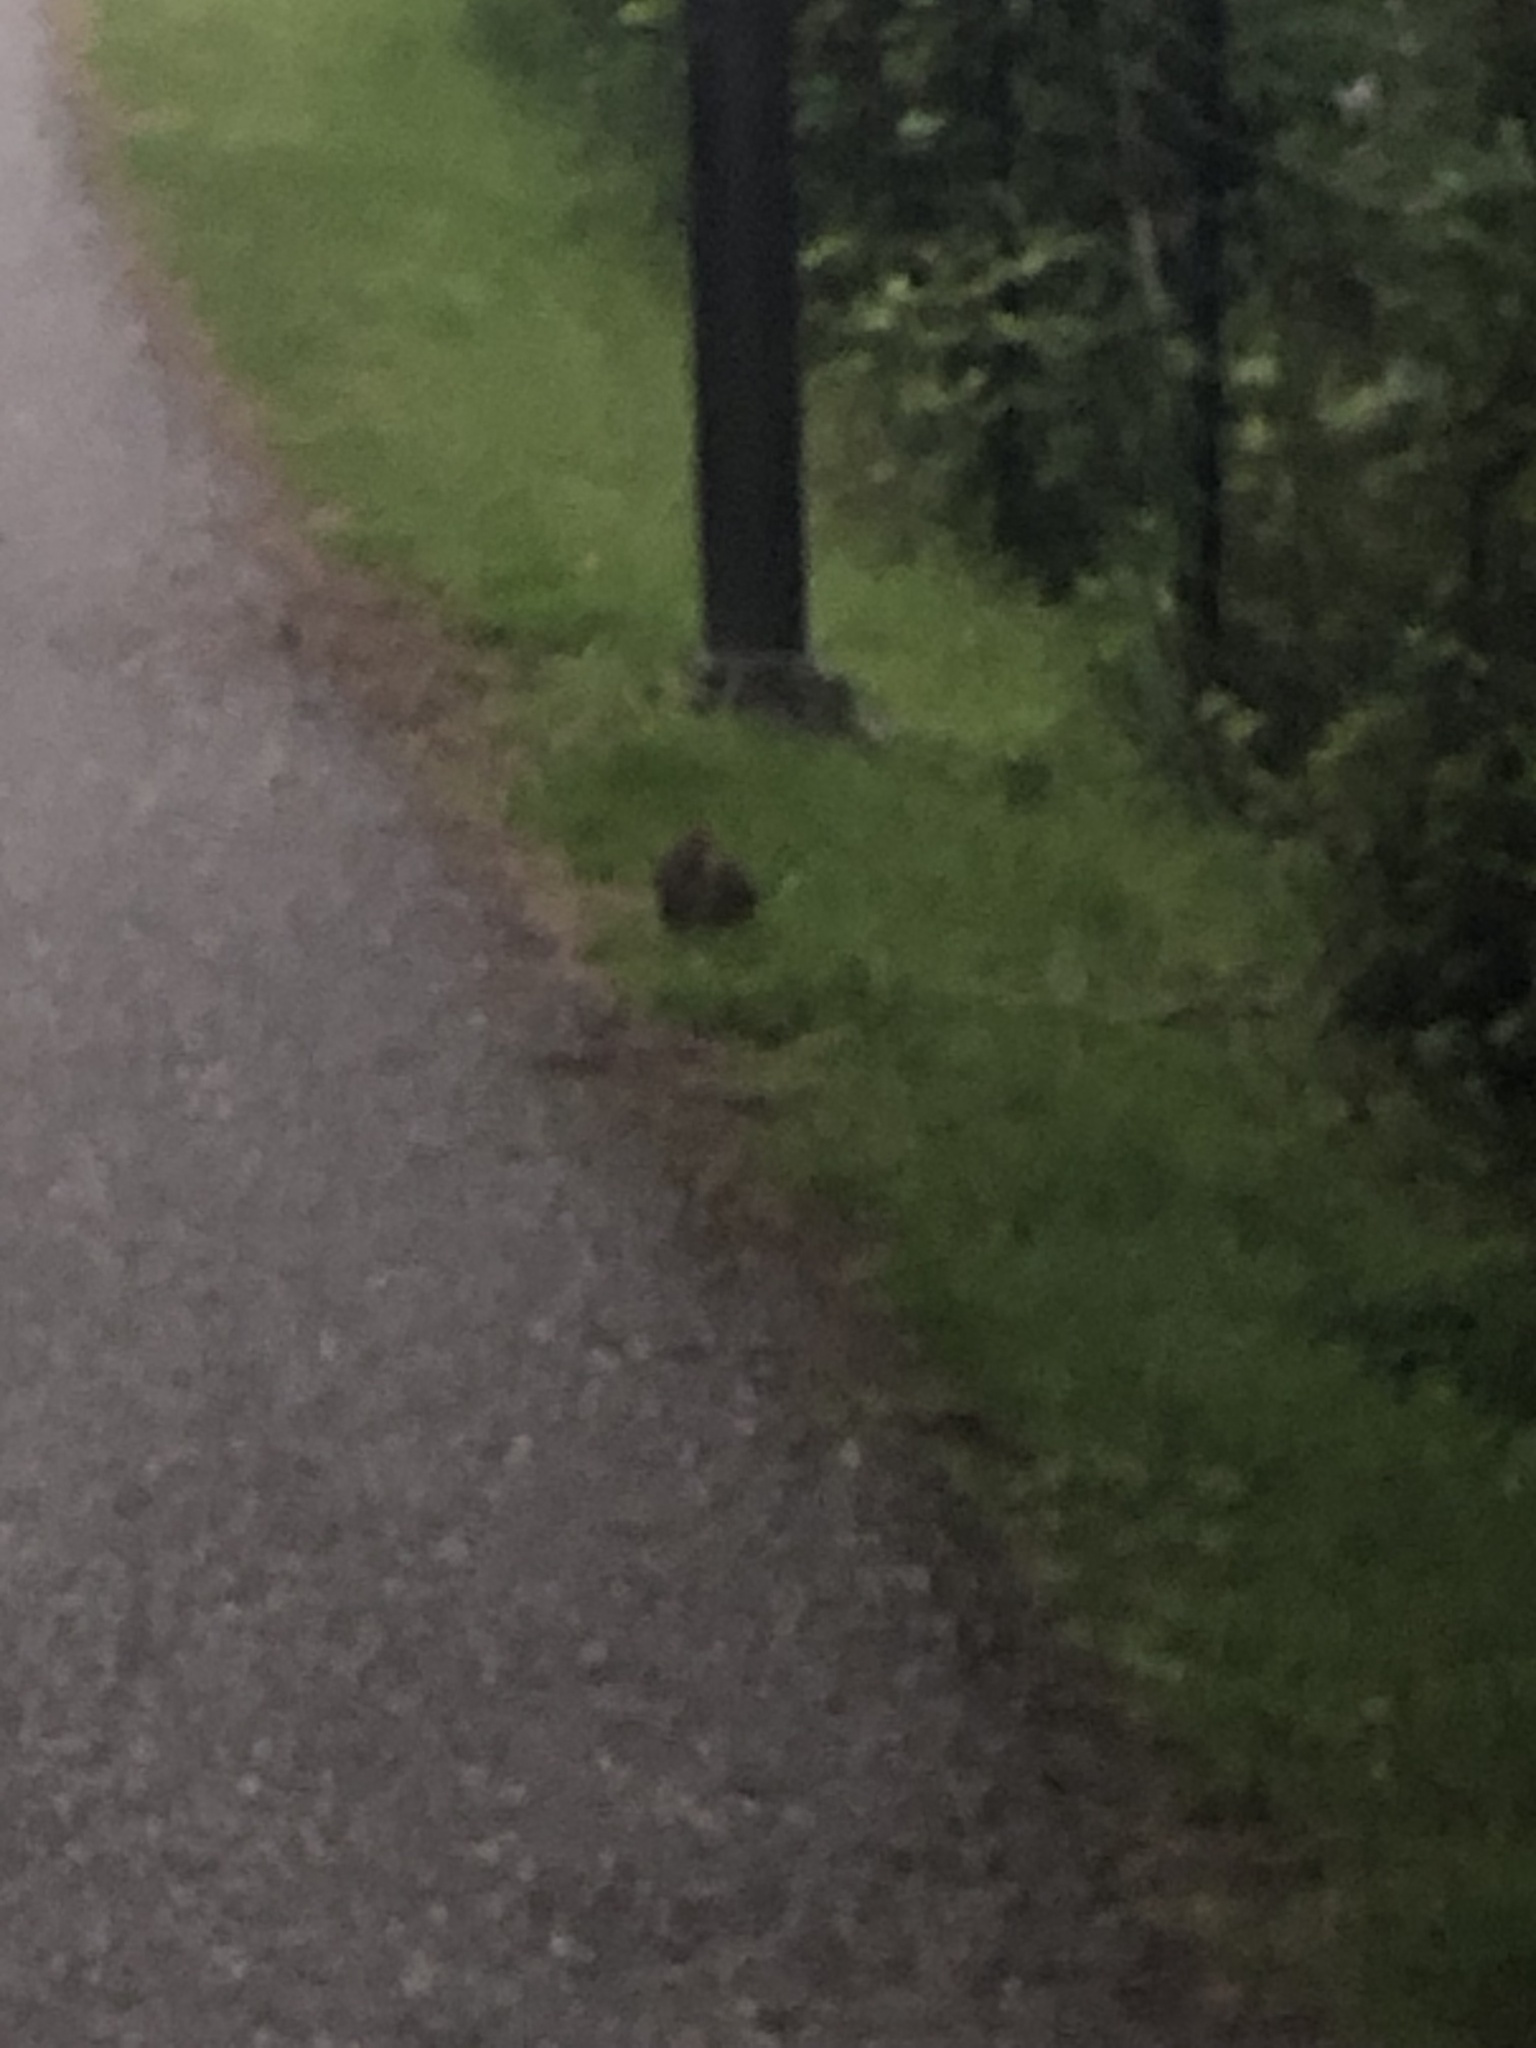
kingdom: Animalia
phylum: Chordata
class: Mammalia
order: Lagomorpha
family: Leporidae
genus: Sylvilagus
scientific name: Sylvilagus floridanus
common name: Eastern cottontail
